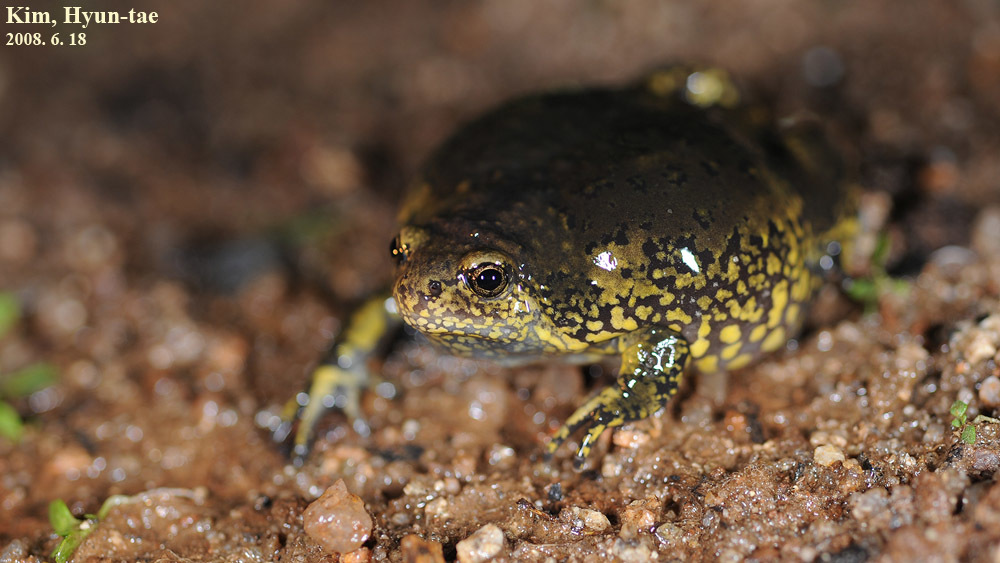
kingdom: Animalia
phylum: Chordata
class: Amphibia
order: Anura
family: Microhylidae
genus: Kaloula
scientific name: Kaloula borealis
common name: Boreal digging frog
